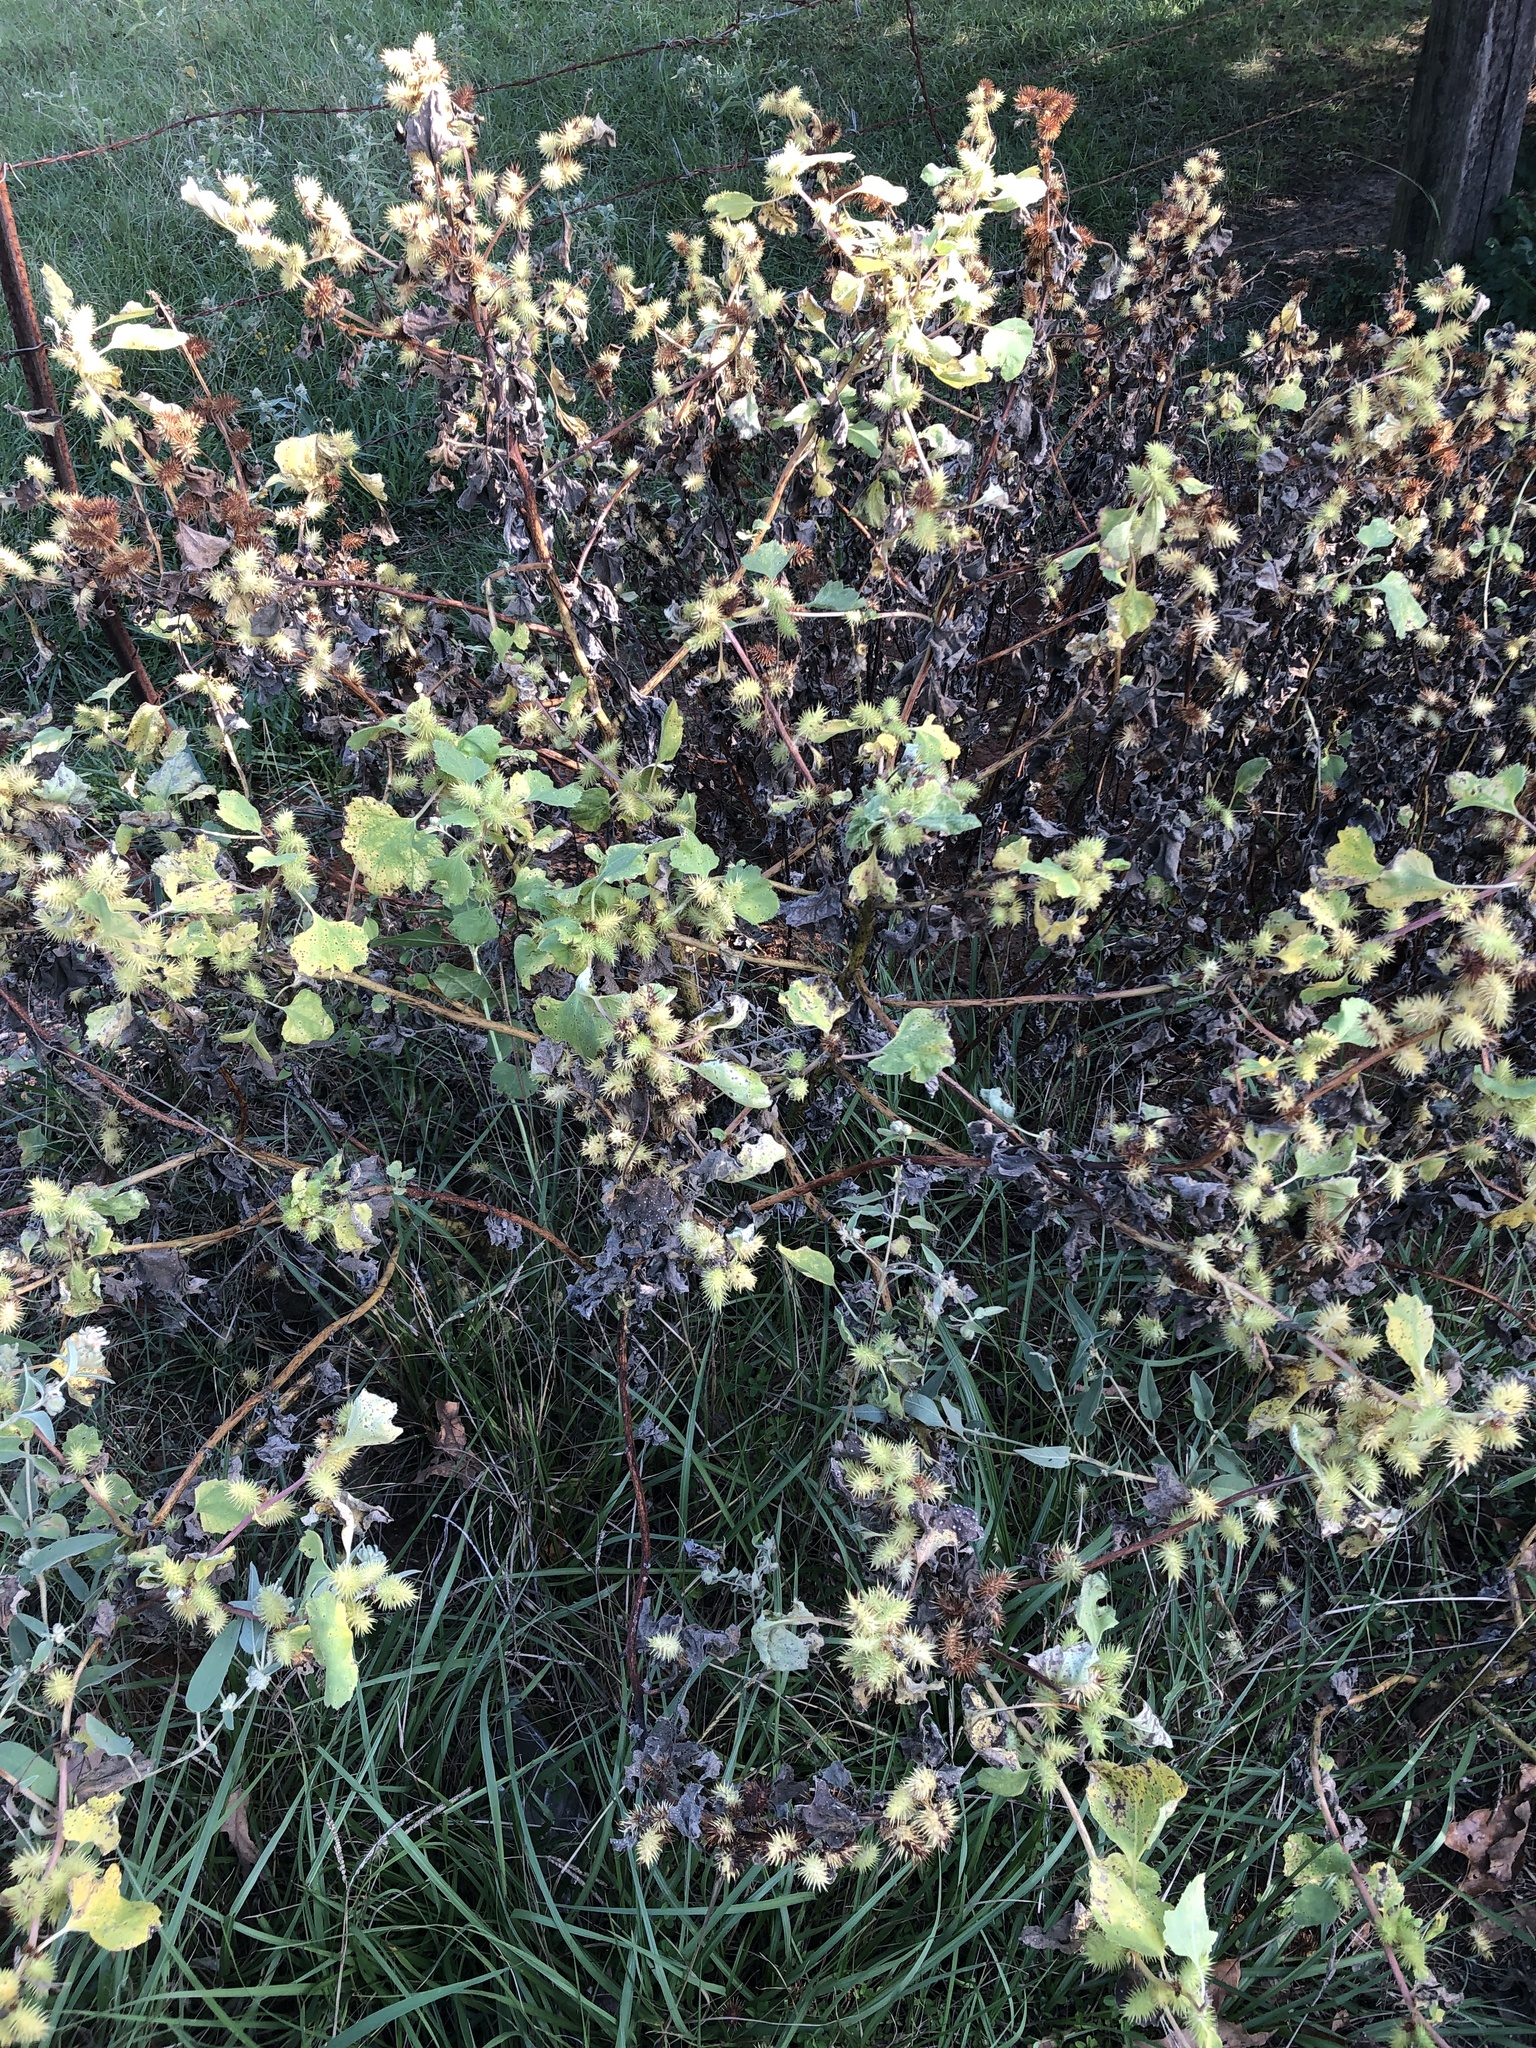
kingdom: Plantae
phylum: Tracheophyta
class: Magnoliopsida
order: Asterales
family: Asteraceae
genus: Xanthium
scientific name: Xanthium strumarium
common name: Rough cocklebur
